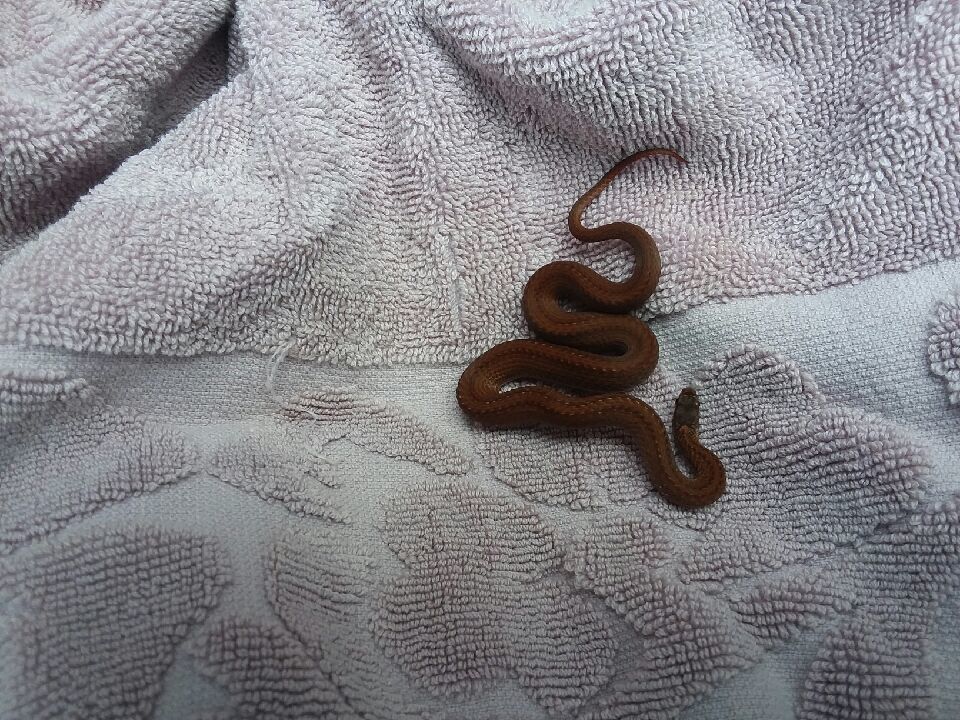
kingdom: Animalia
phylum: Chordata
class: Squamata
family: Colubridae
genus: Storeria
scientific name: Storeria occipitomaculata
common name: Redbelly snake
